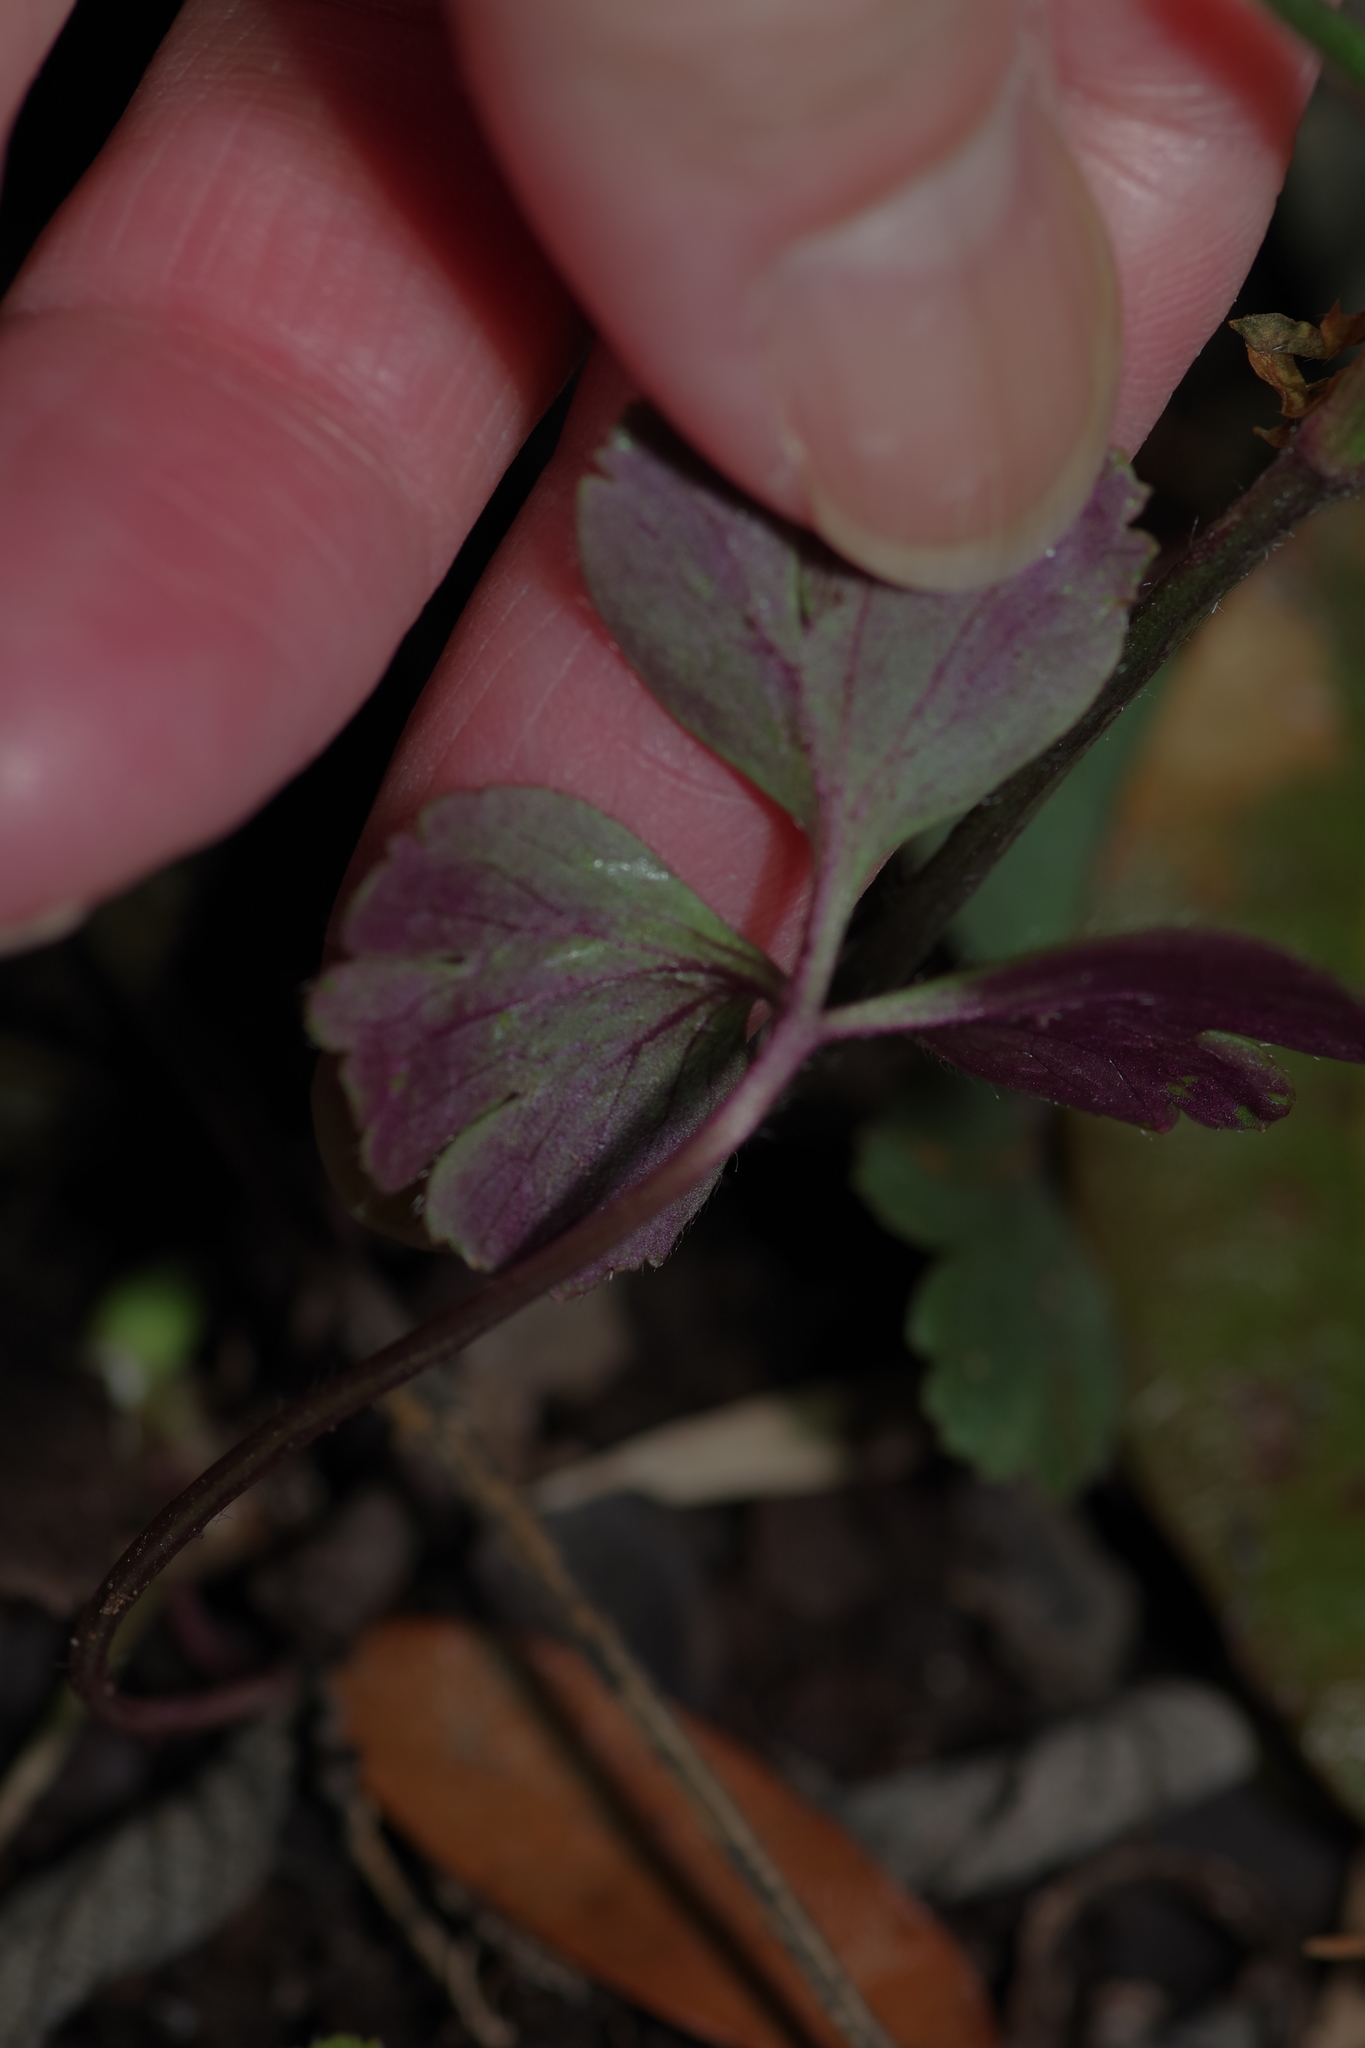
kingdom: Plantae
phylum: Tracheophyta
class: Magnoliopsida
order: Ranunculales
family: Ranunculaceae
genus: Anemone
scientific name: Anemone berlandieri
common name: Ten-petal anemone
